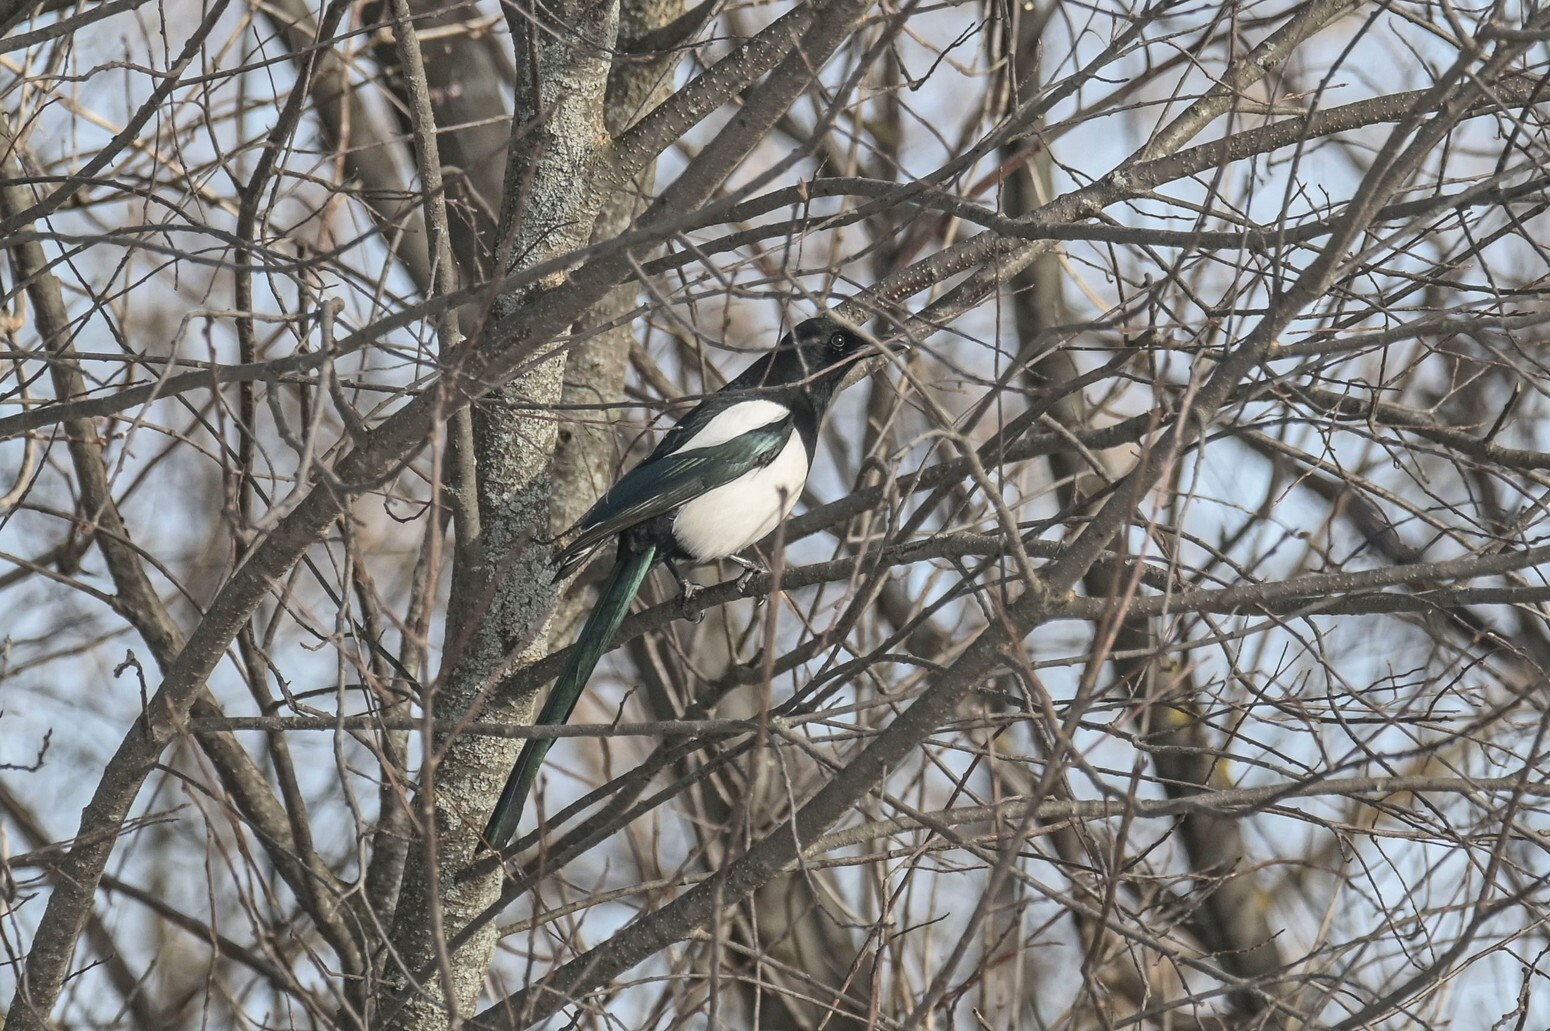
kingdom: Animalia
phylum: Chordata
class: Aves
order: Passeriformes
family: Corvidae
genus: Pica
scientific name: Pica pica
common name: Eurasian magpie
